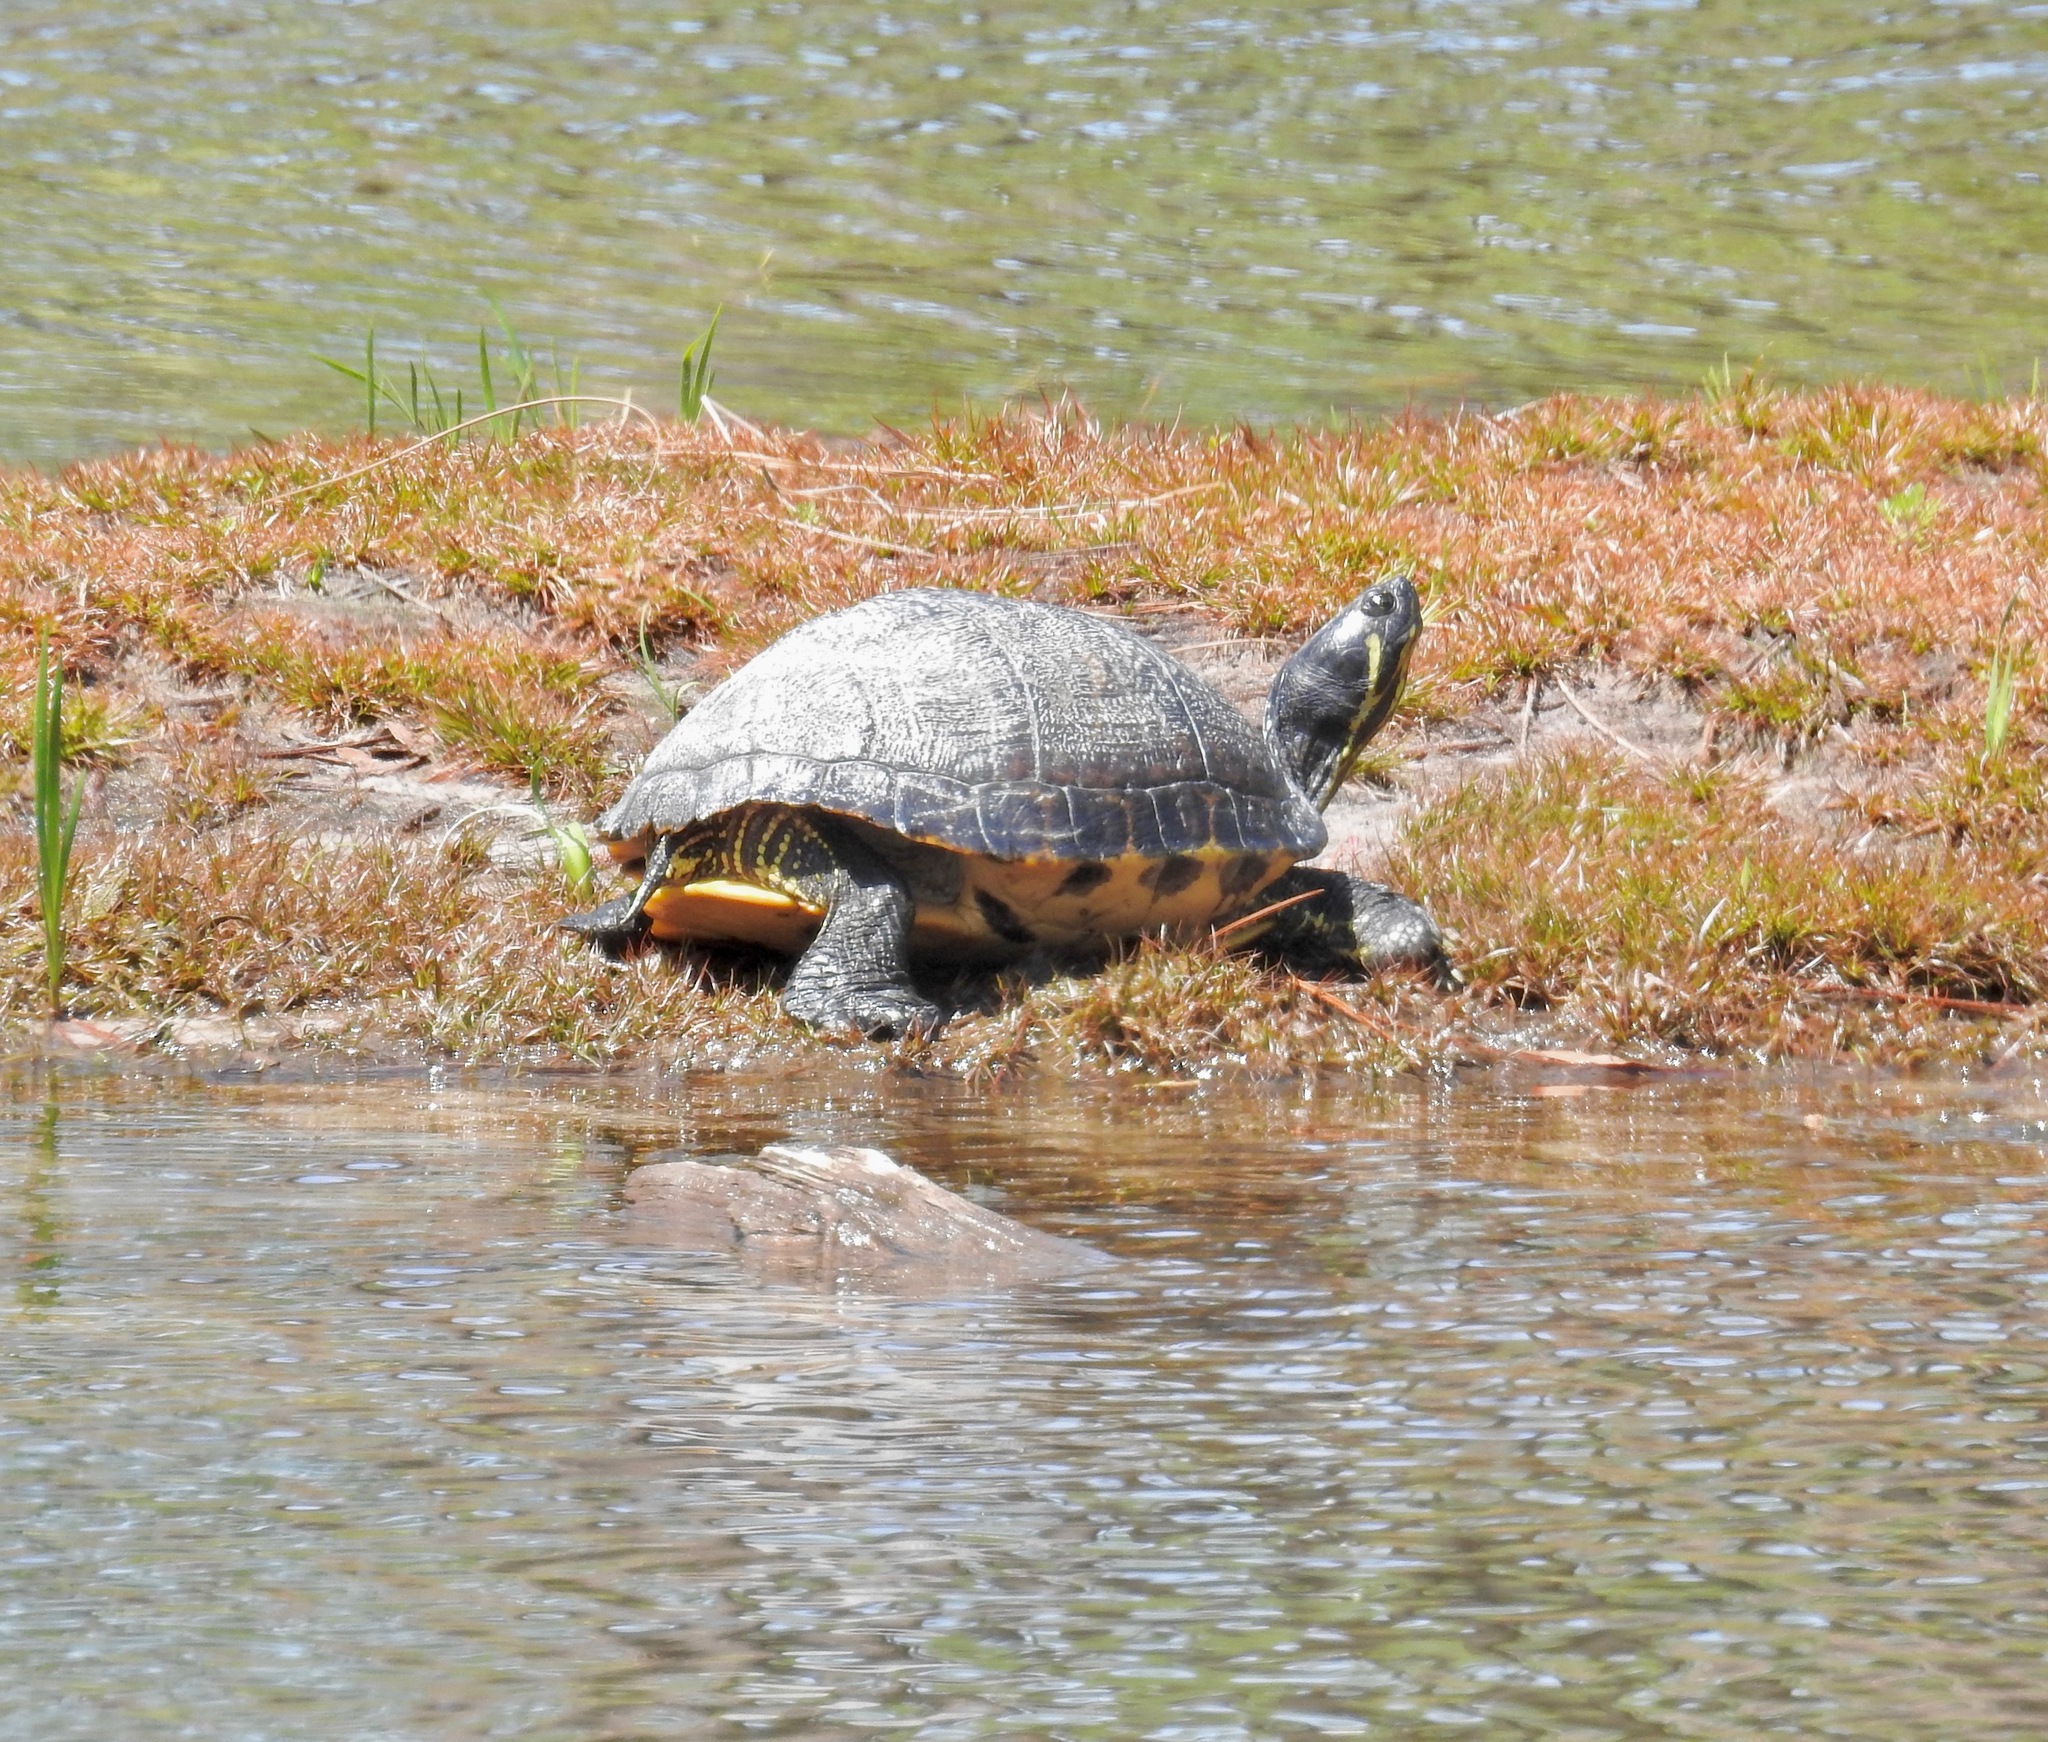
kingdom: Animalia
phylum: Chordata
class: Testudines
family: Emydidae
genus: Trachemys
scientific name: Trachemys scripta
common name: Slider
